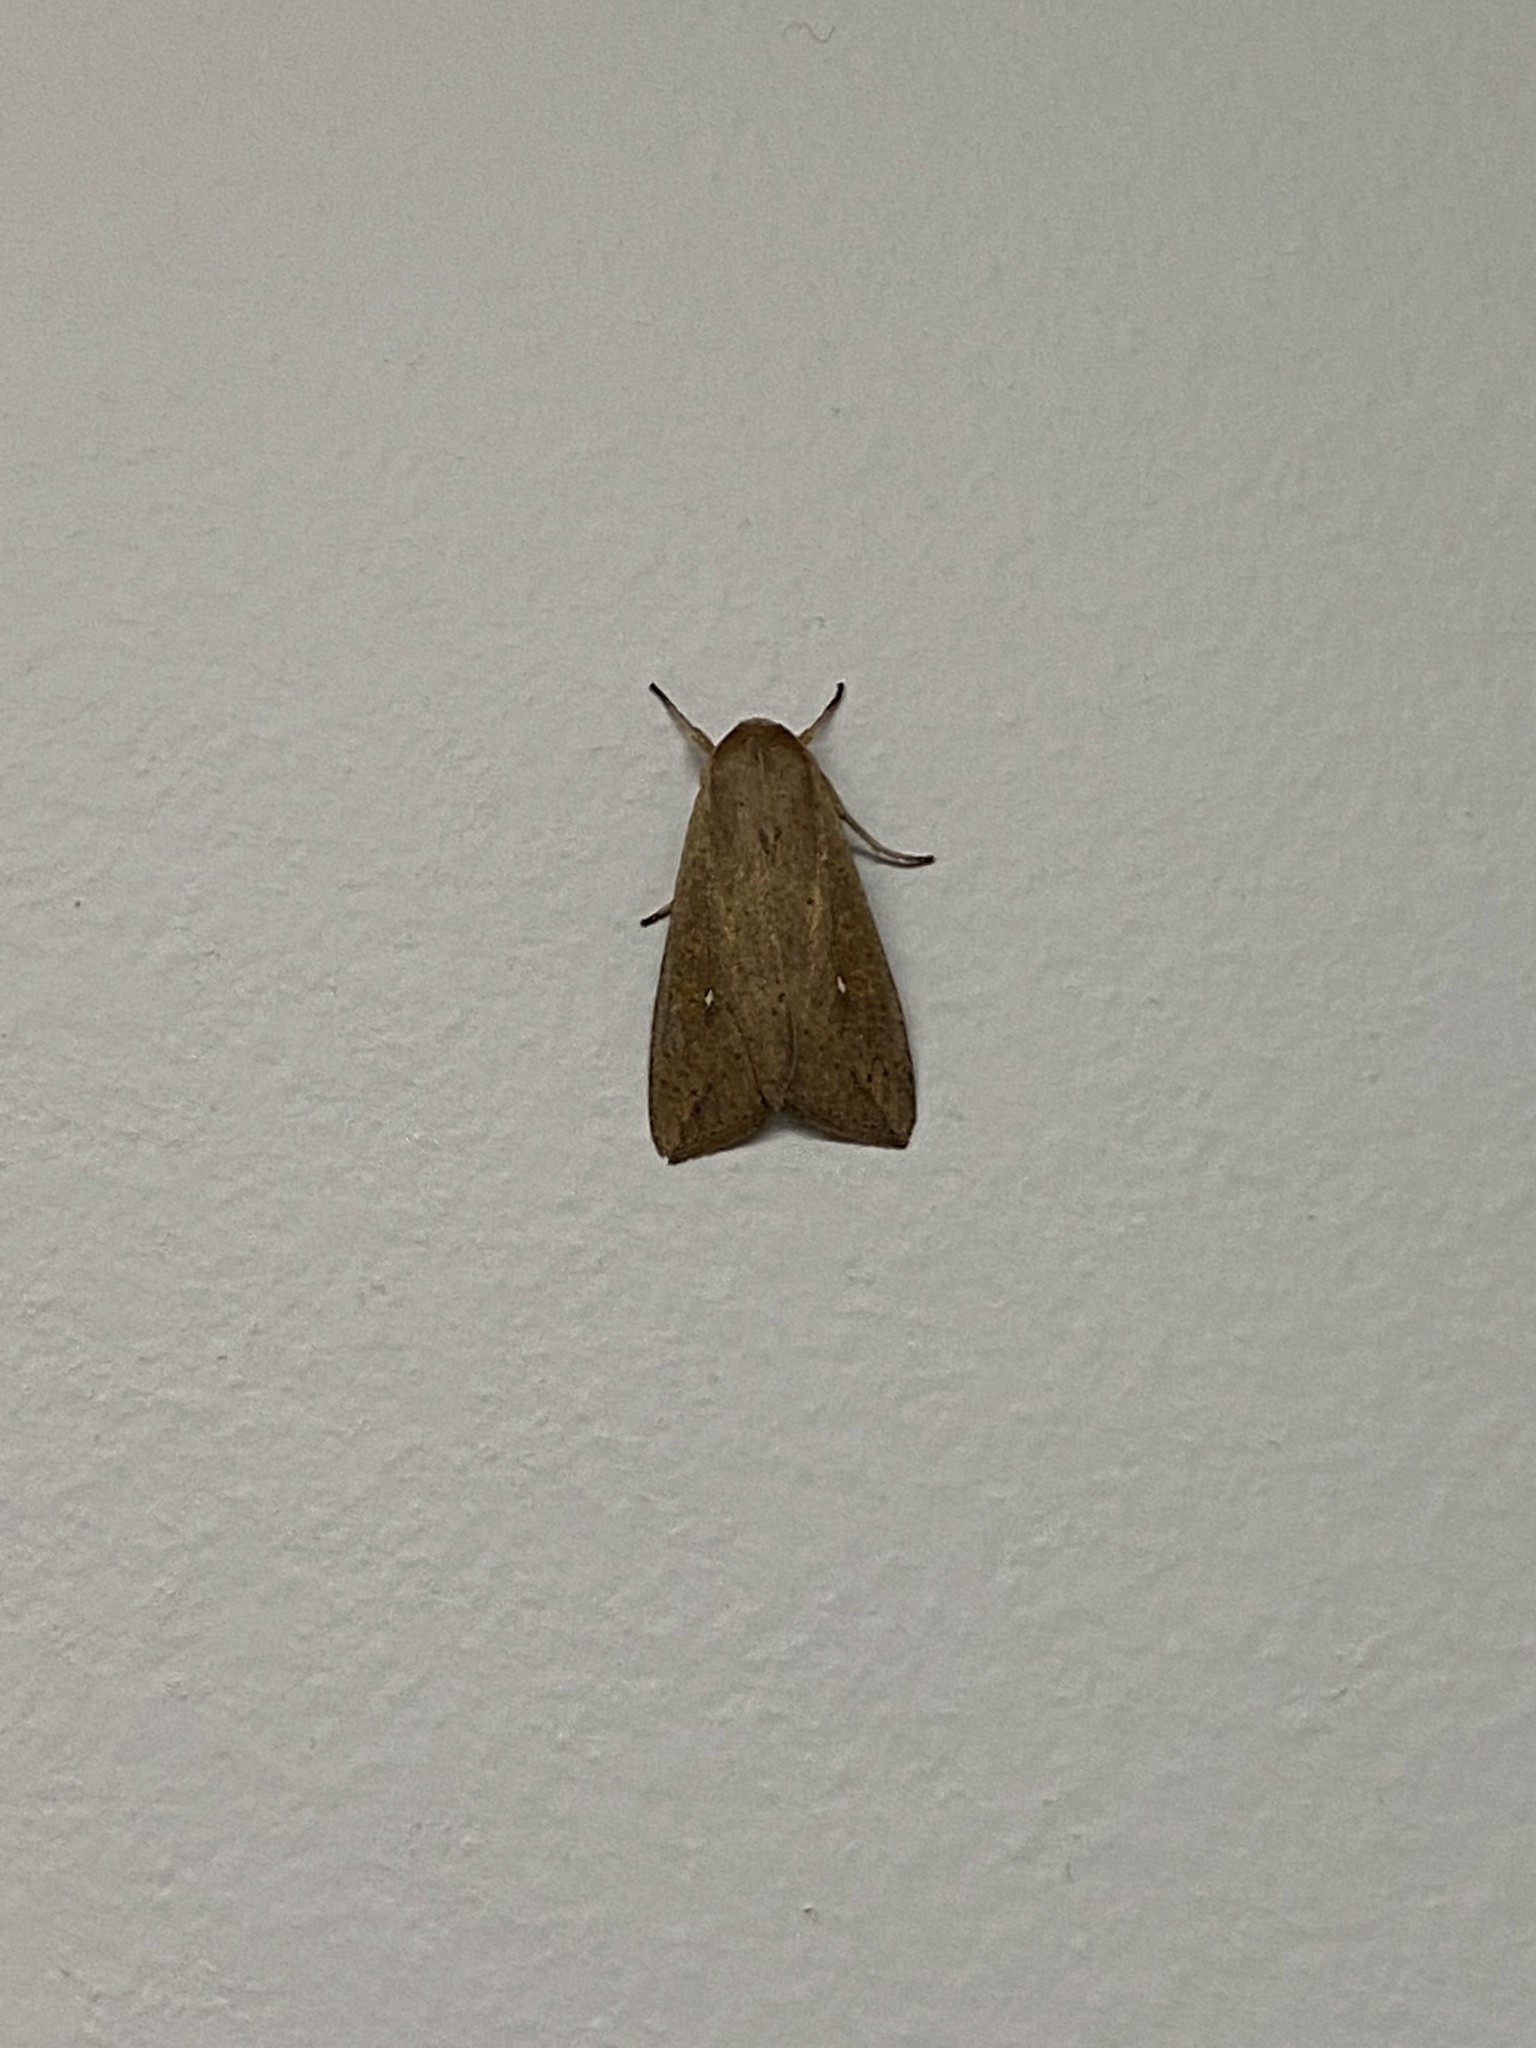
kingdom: Animalia
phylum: Arthropoda
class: Insecta
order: Lepidoptera
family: Noctuidae
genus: Mythimna
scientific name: Mythimna unipuncta
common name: White-speck
